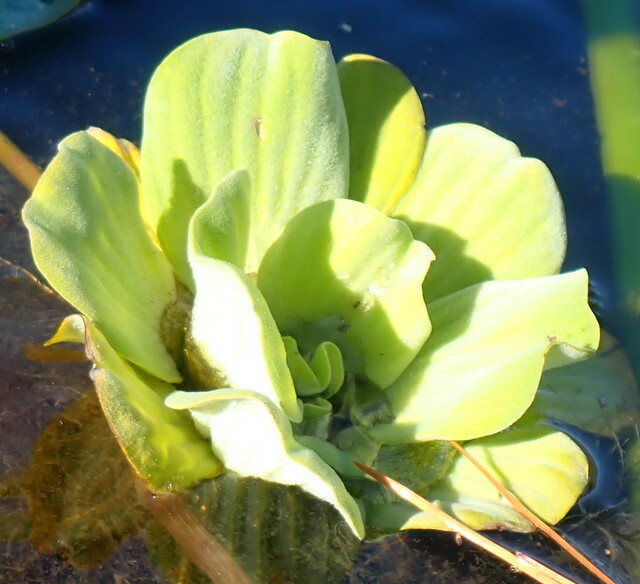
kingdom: Plantae
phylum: Tracheophyta
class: Liliopsida
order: Alismatales
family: Araceae
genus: Pistia
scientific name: Pistia stratiotes
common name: Water lettuce
